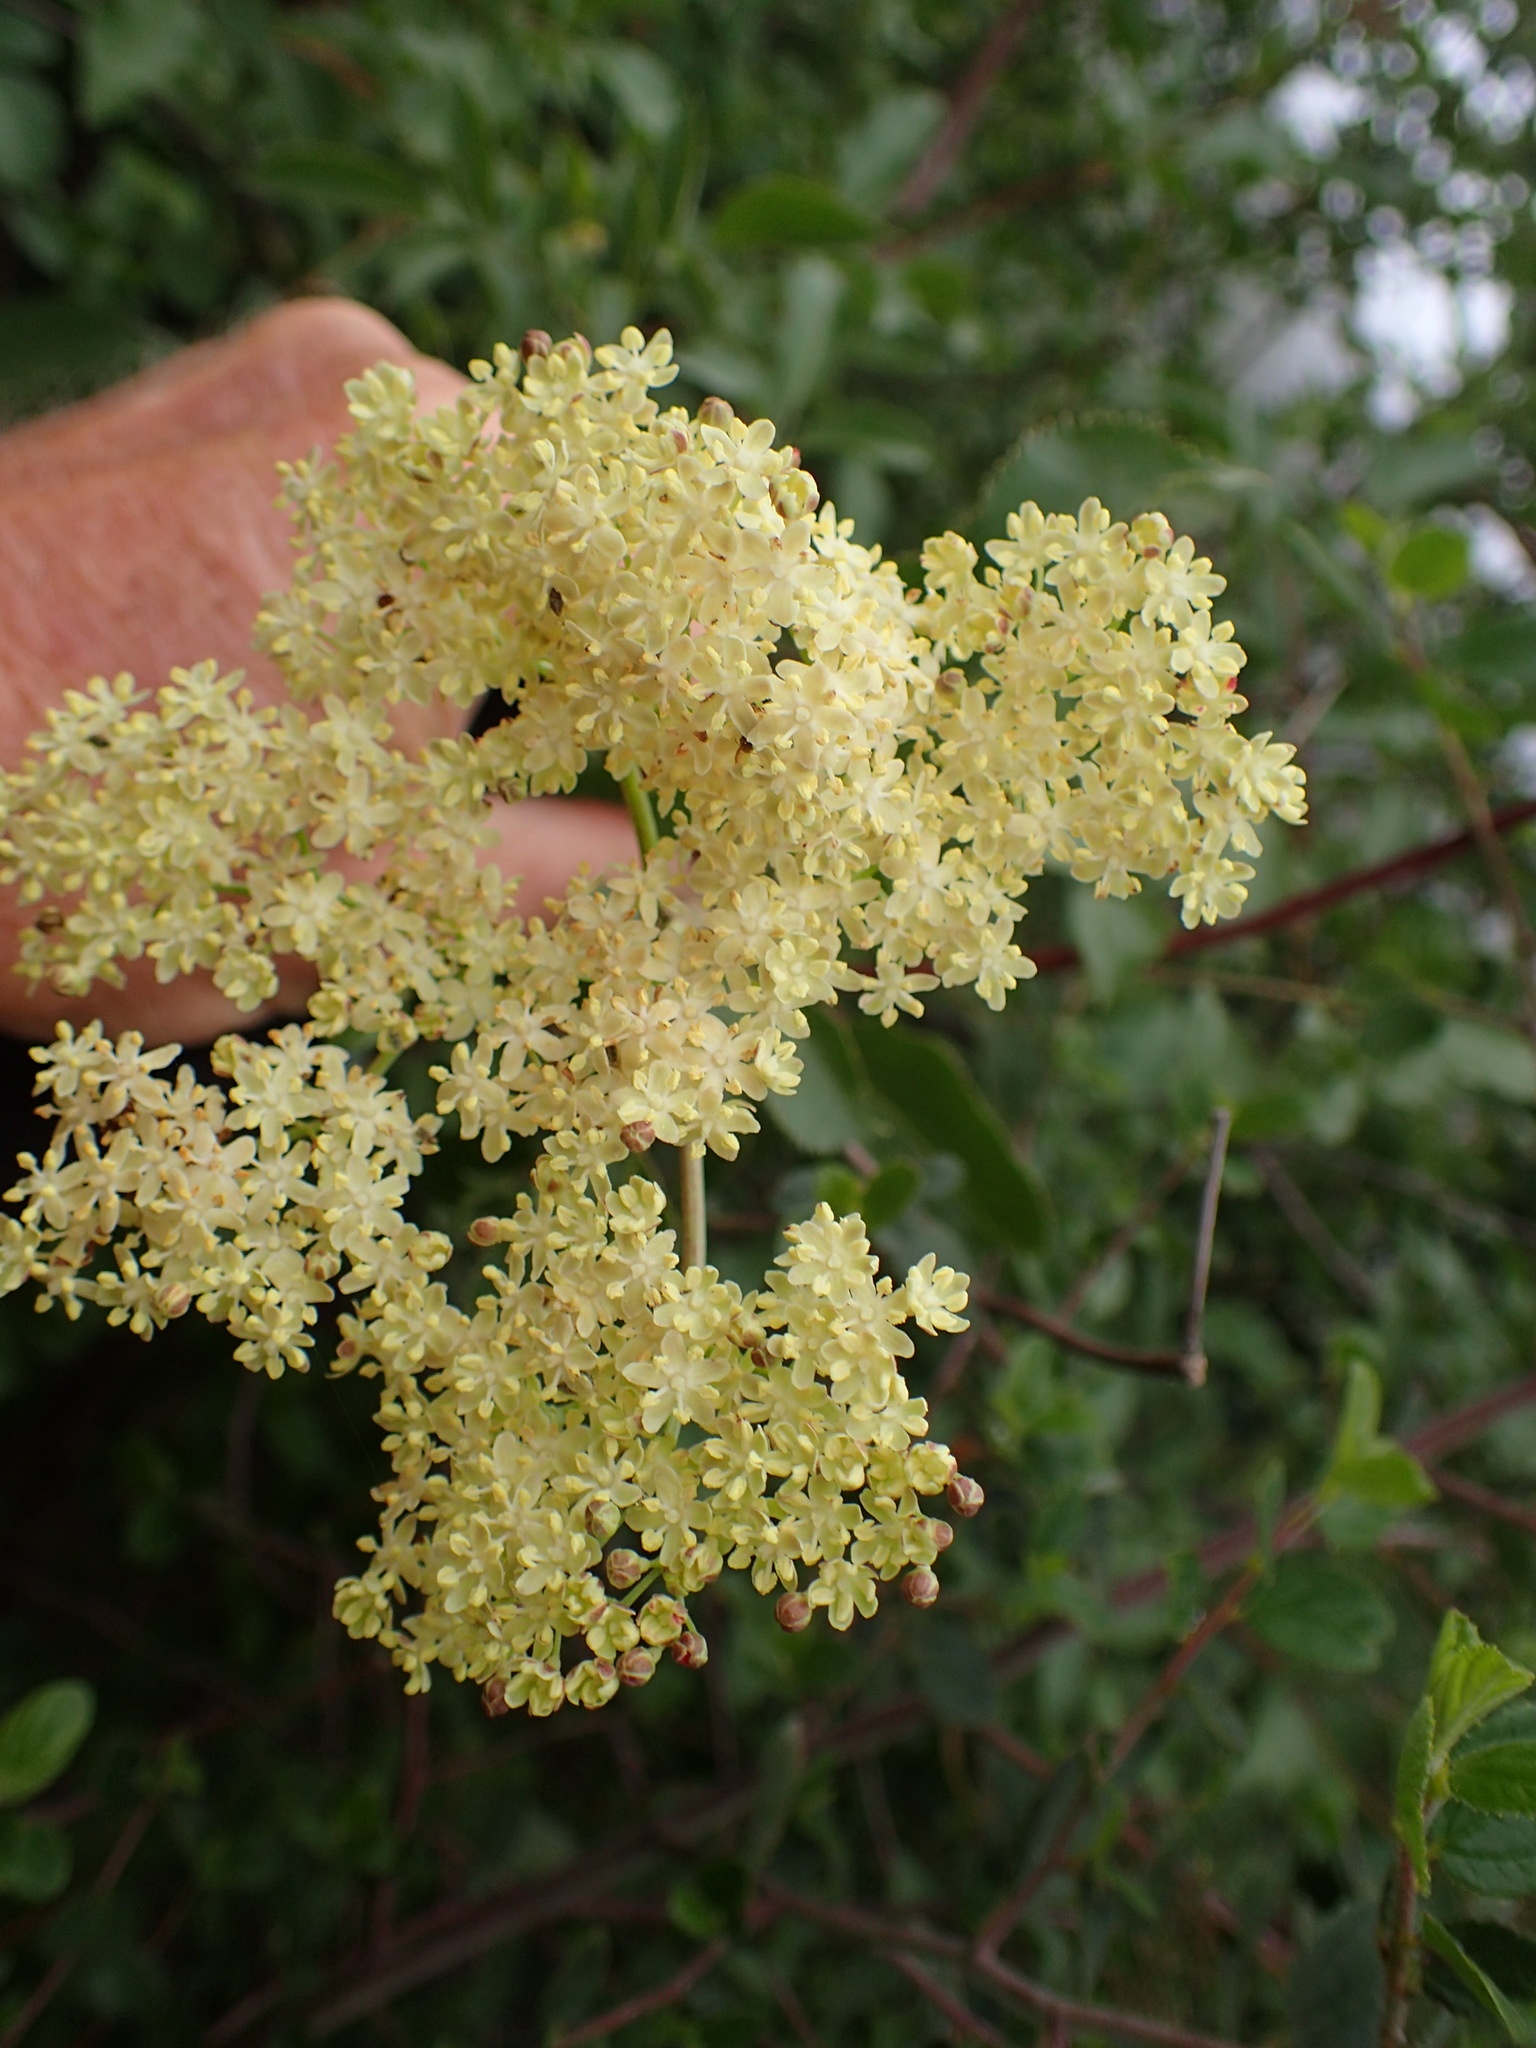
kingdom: Plantae
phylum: Tracheophyta
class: Magnoliopsida
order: Dipsacales
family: Viburnaceae
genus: Sambucus
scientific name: Sambucus cerulea
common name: Blue elder
